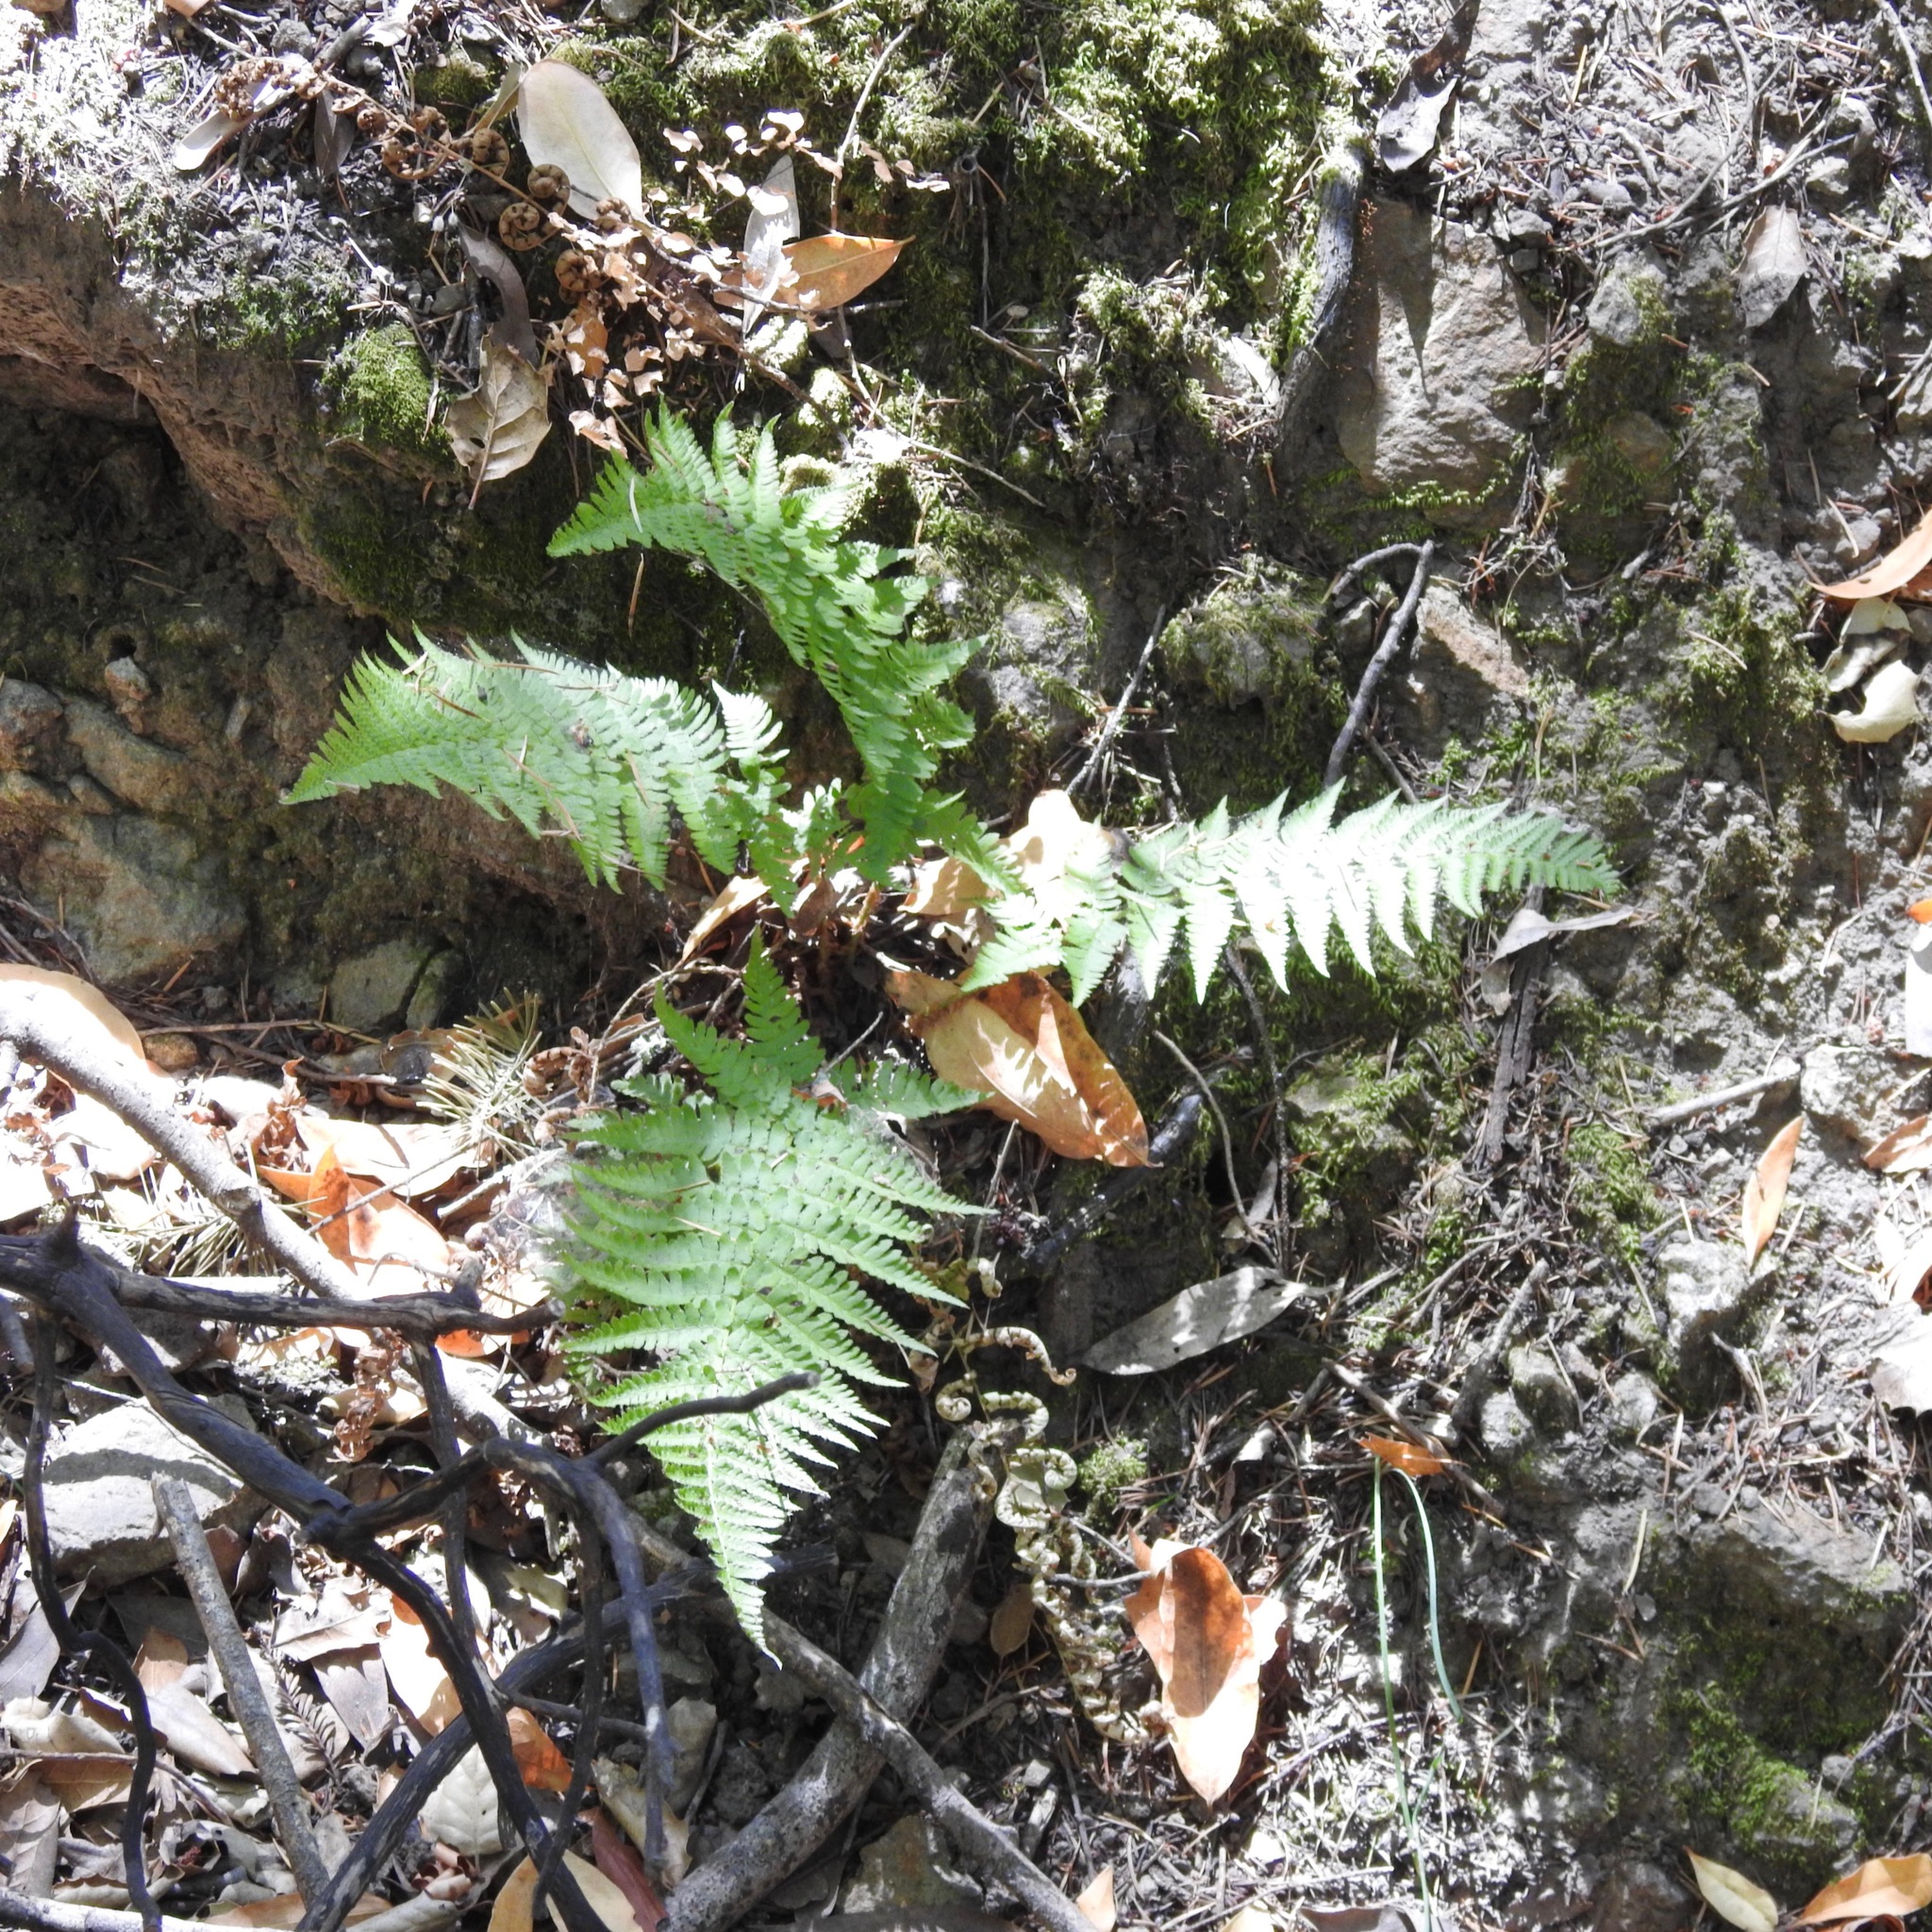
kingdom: Plantae
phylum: Tracheophyta
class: Polypodiopsida
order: Polypodiales
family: Dryopteridaceae
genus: Dryopteris
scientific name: Dryopteris arguta
